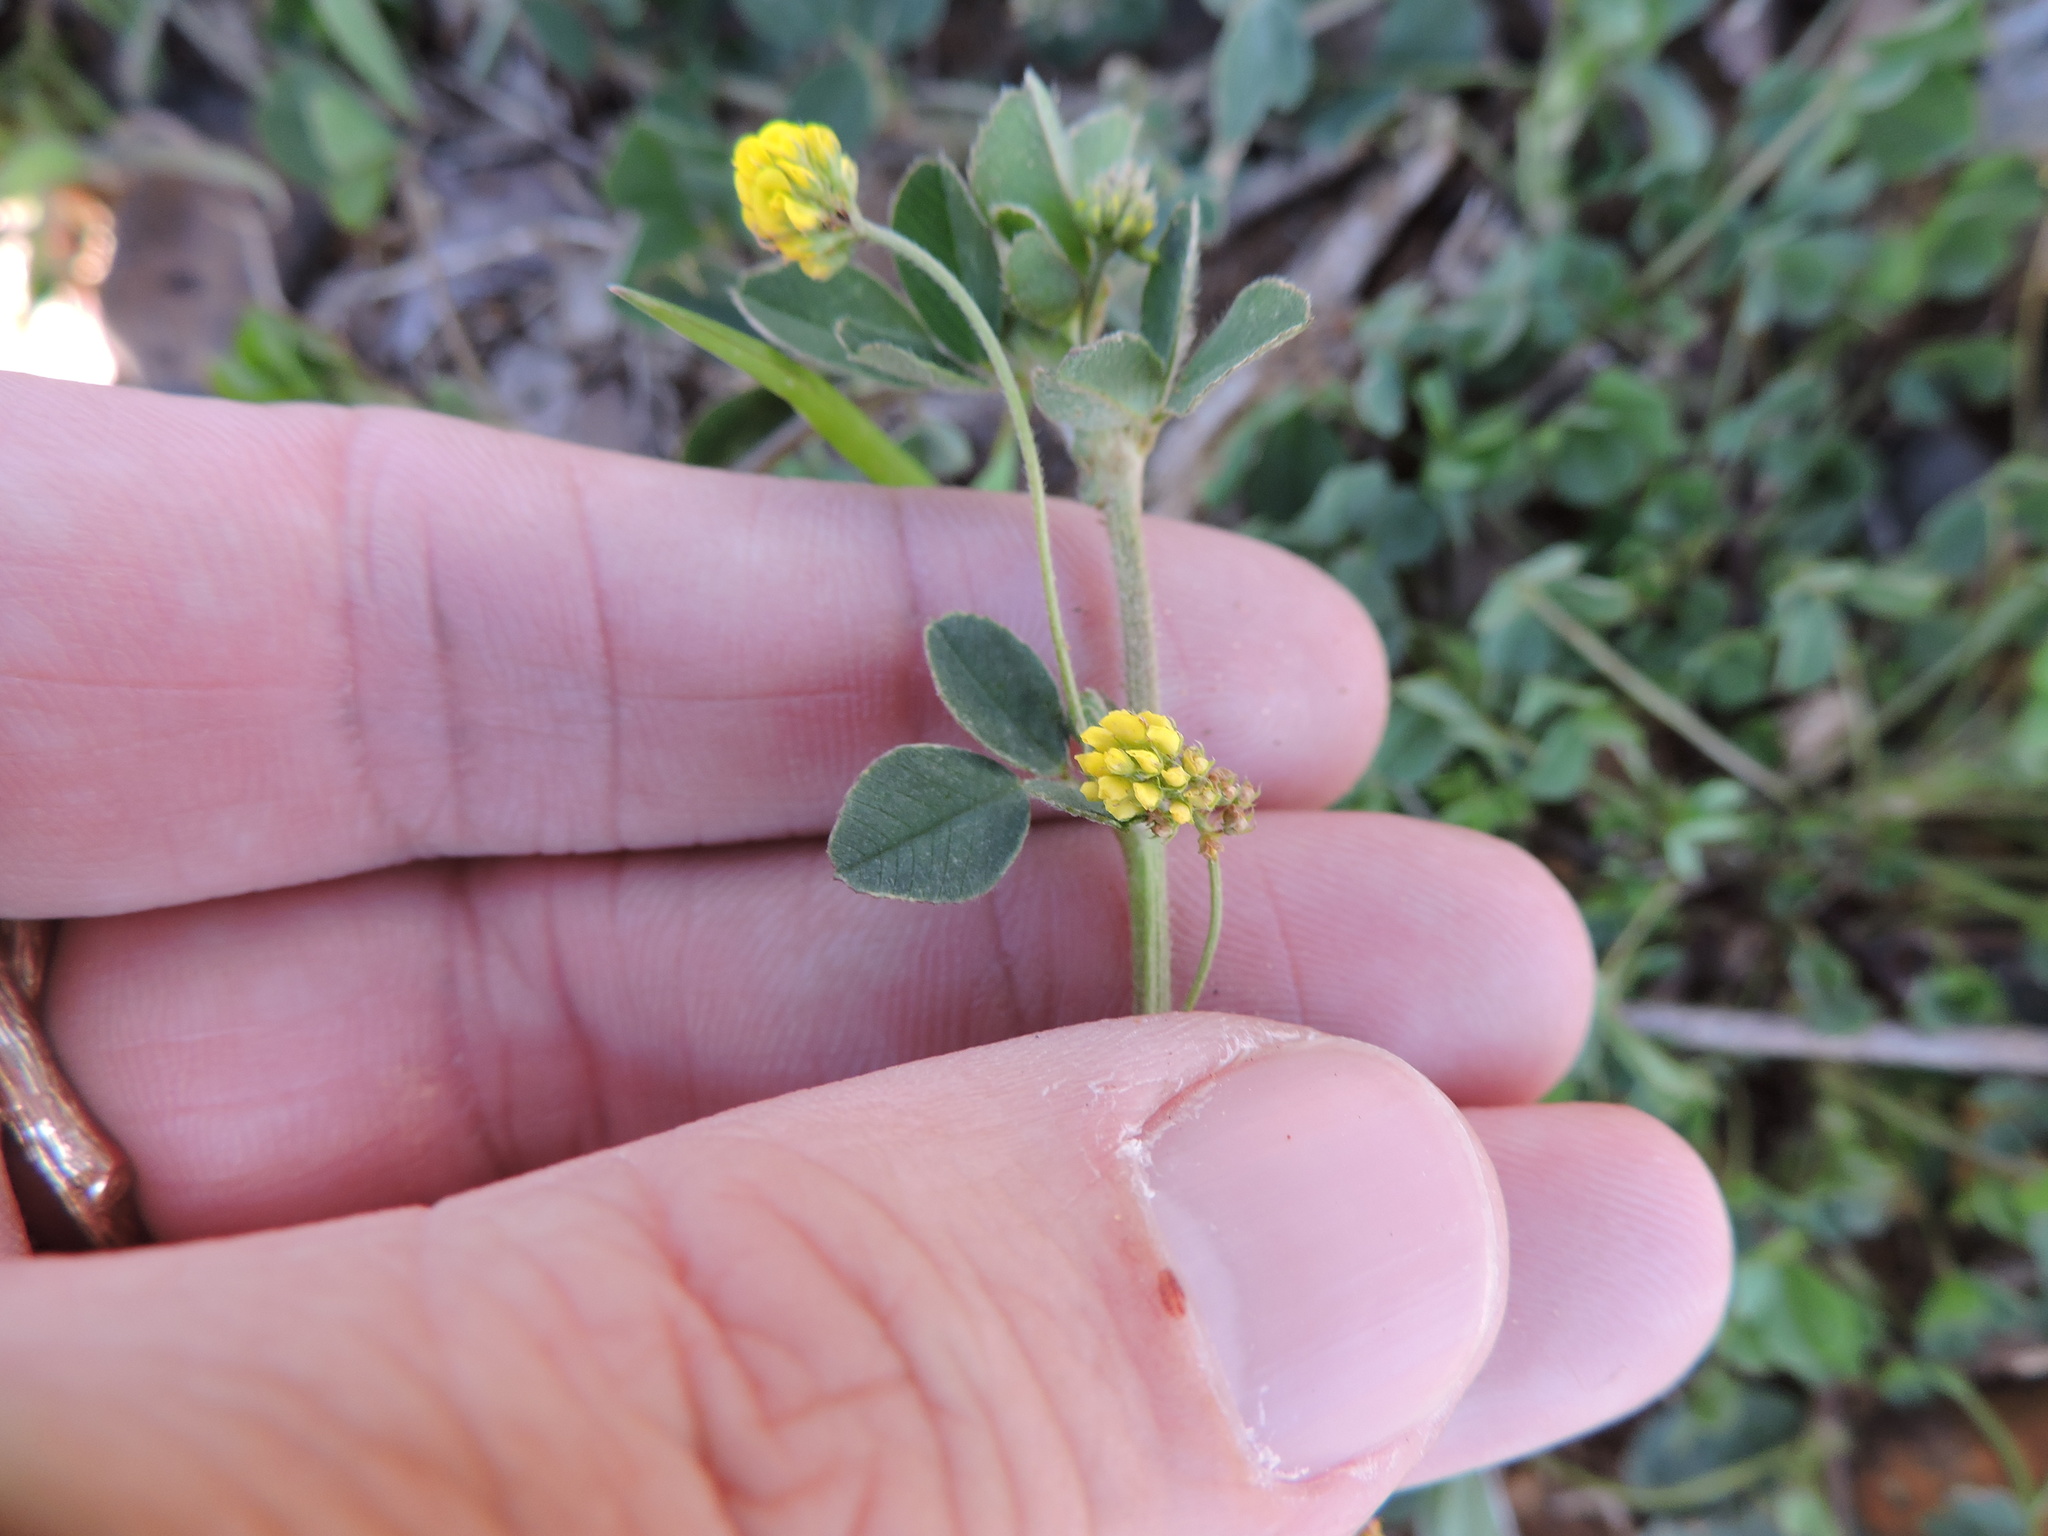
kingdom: Plantae
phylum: Tracheophyta
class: Magnoliopsida
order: Fabales
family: Fabaceae
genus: Medicago
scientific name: Medicago lupulina
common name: Black medick
